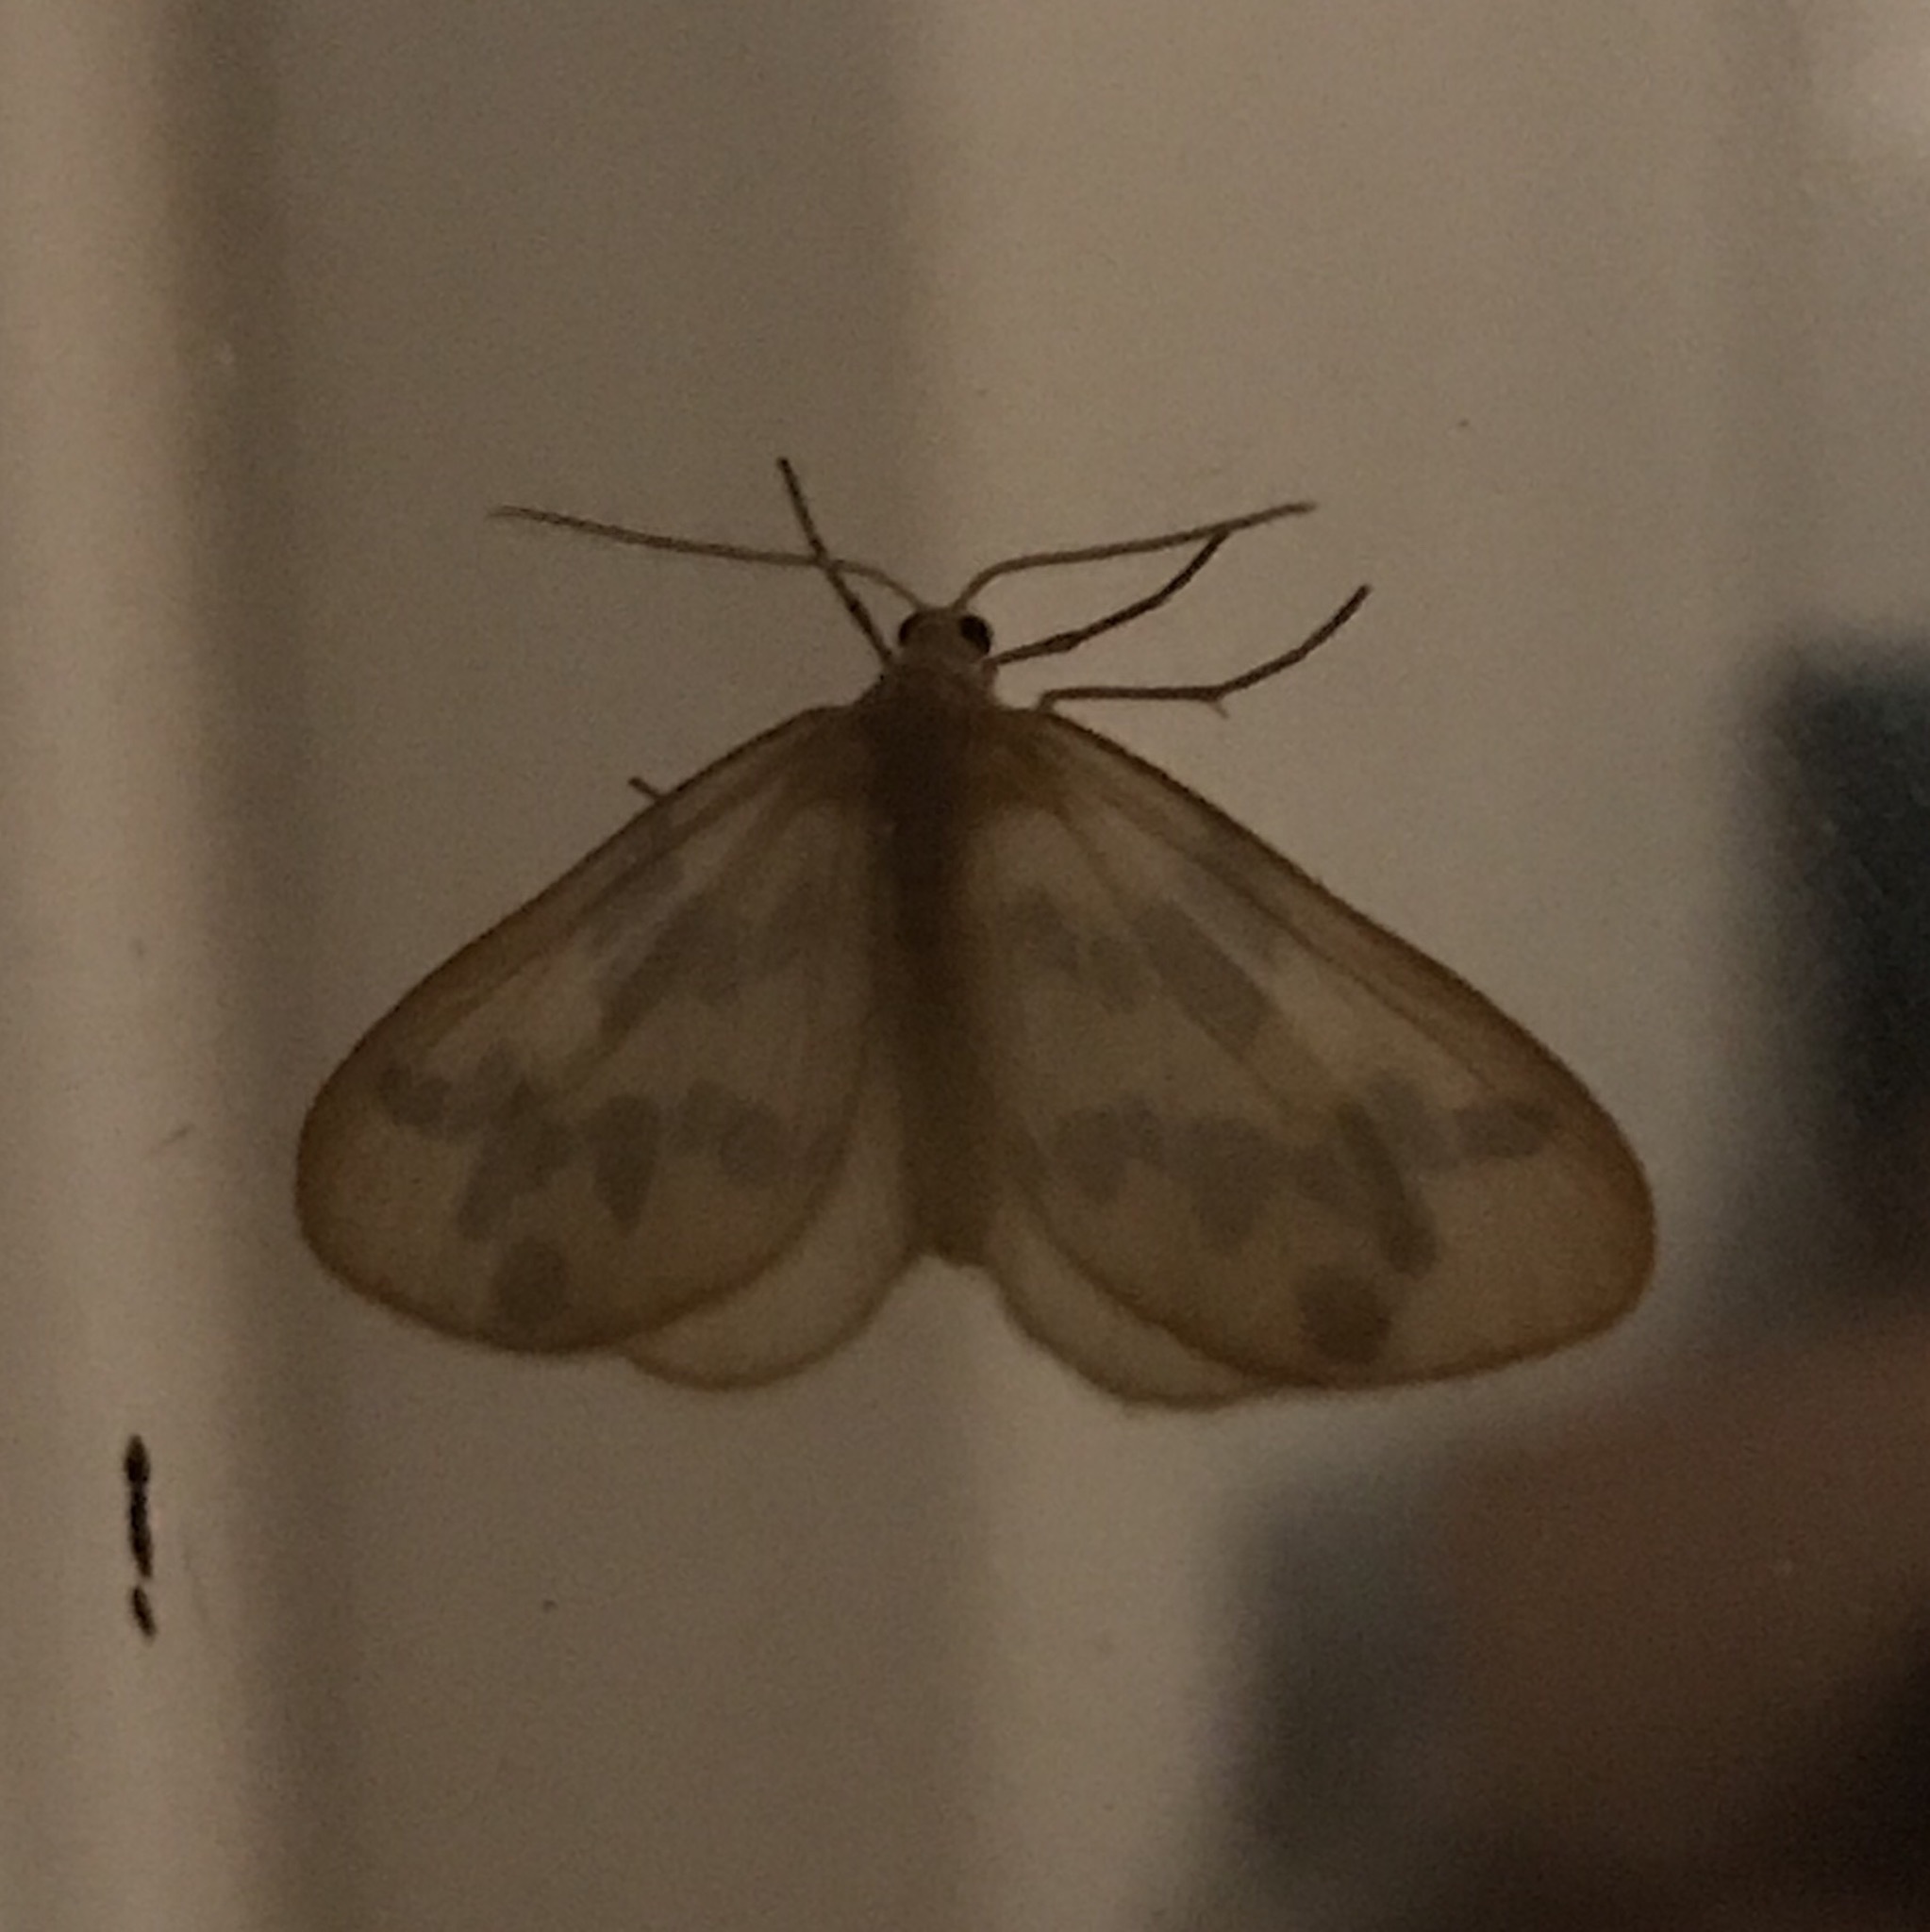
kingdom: Animalia
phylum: Arthropoda
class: Insecta
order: Lepidoptera
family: Geometridae
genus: Eubaphe
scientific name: Eubaphe mendica
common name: Beggar
